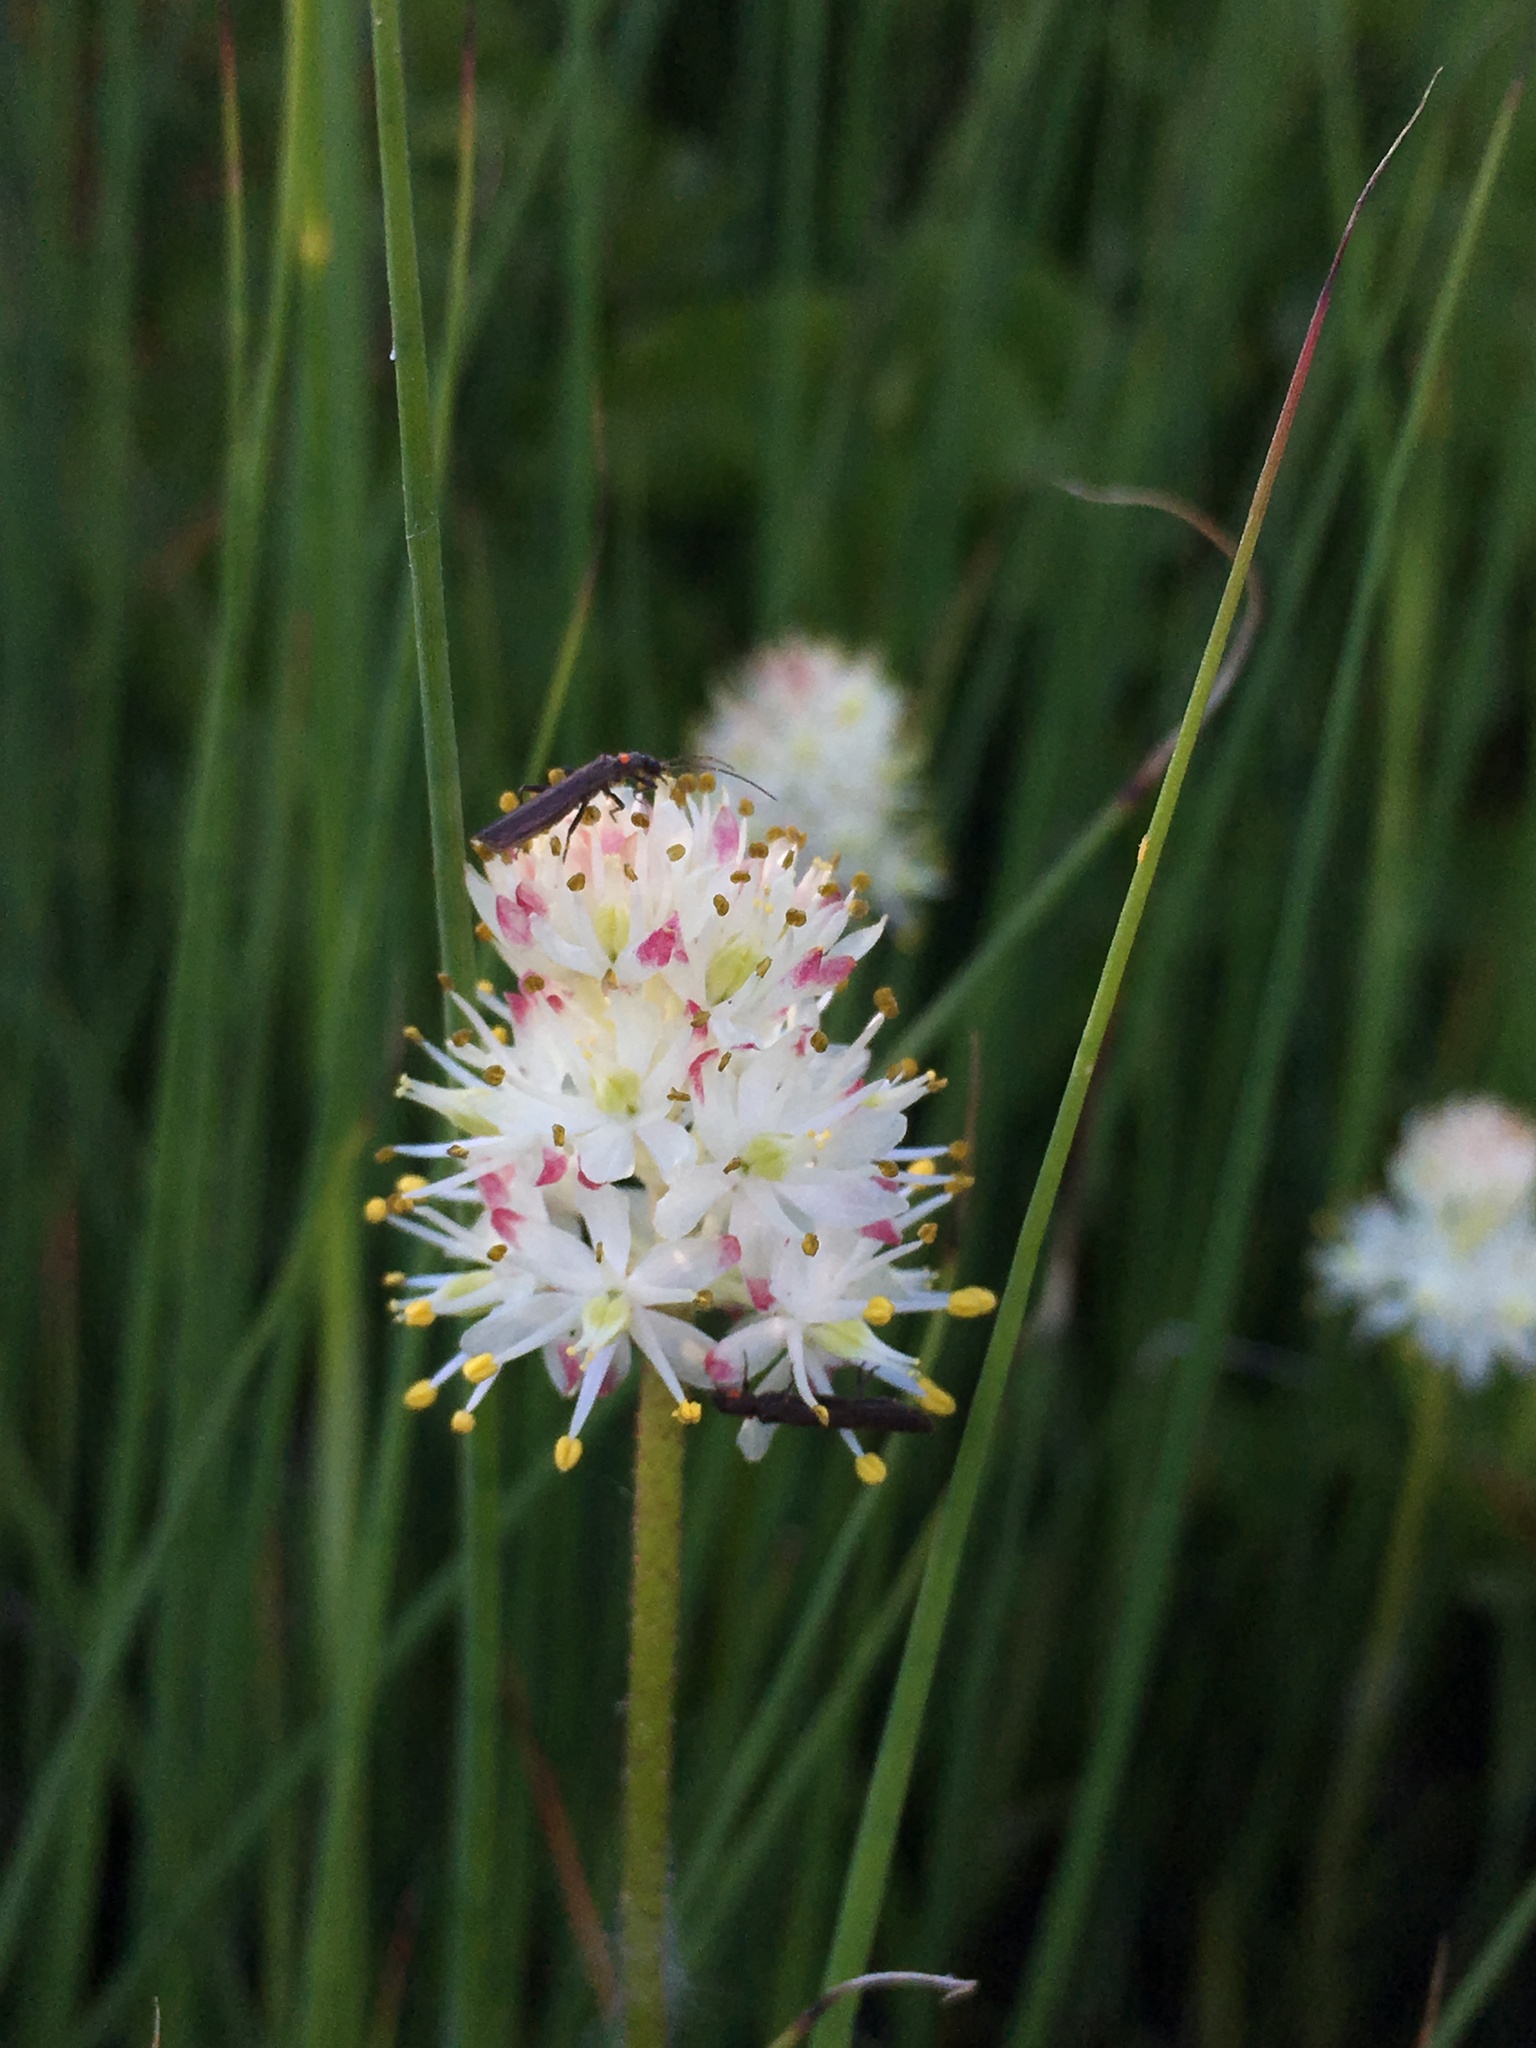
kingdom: Plantae
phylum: Tracheophyta
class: Liliopsida
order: Alismatales
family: Tofieldiaceae
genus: Triantha
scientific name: Triantha occidentalis
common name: Western false asphodel
